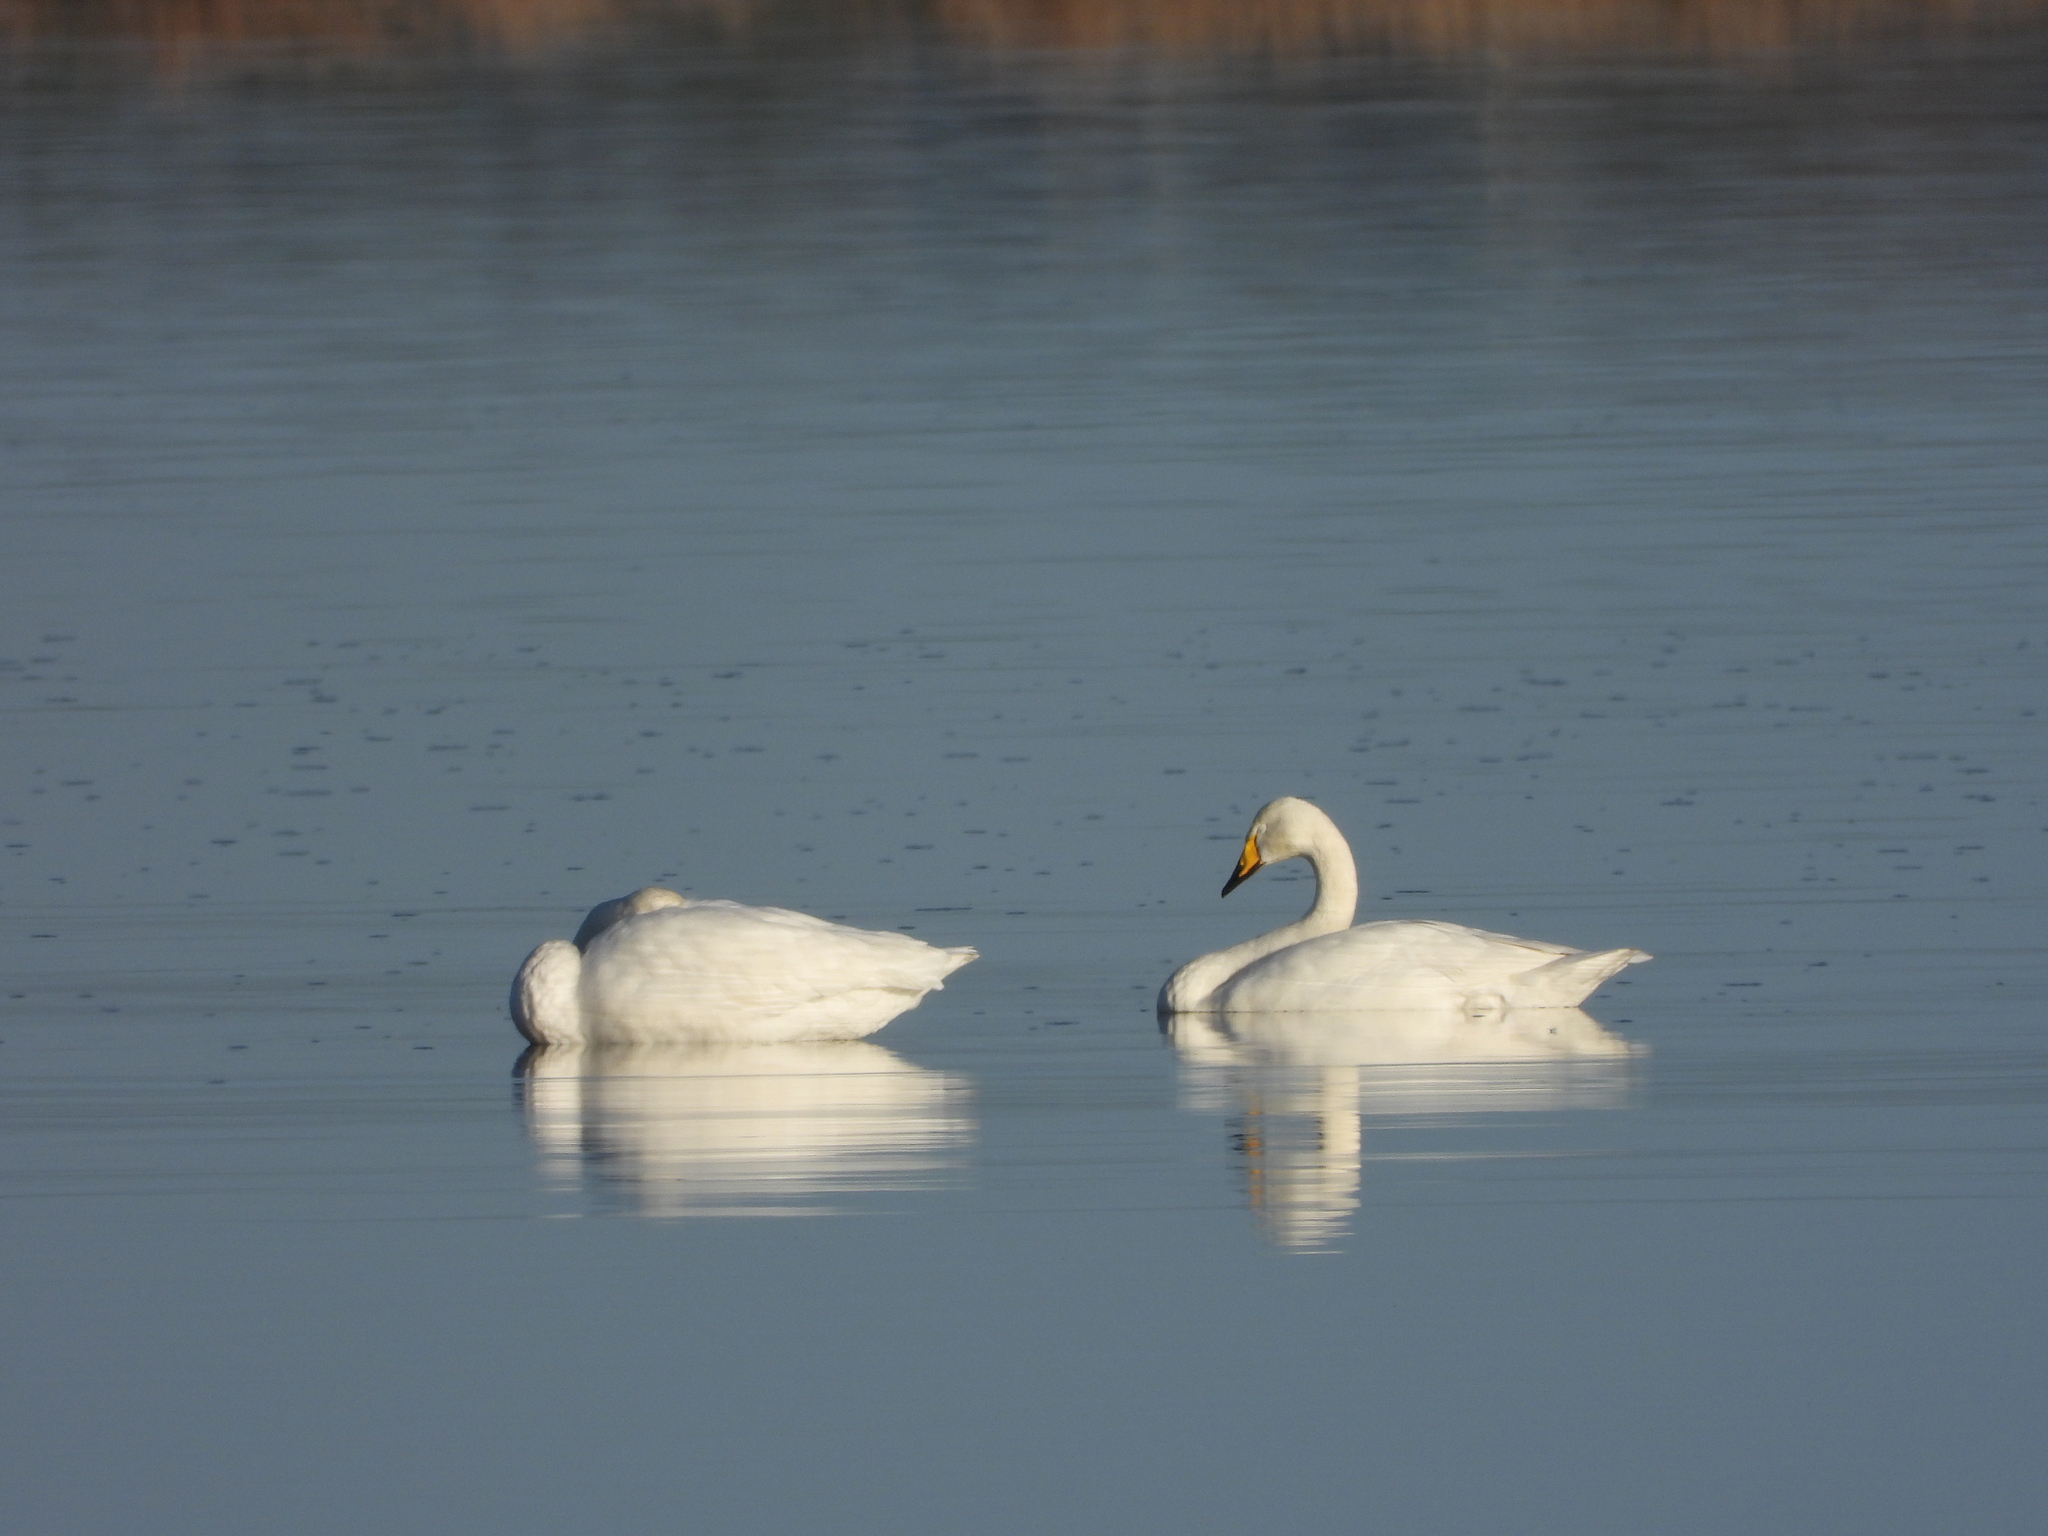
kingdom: Animalia
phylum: Chordata
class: Aves
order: Anseriformes
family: Anatidae
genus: Cygnus
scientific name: Cygnus cygnus
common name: Whooper swan
